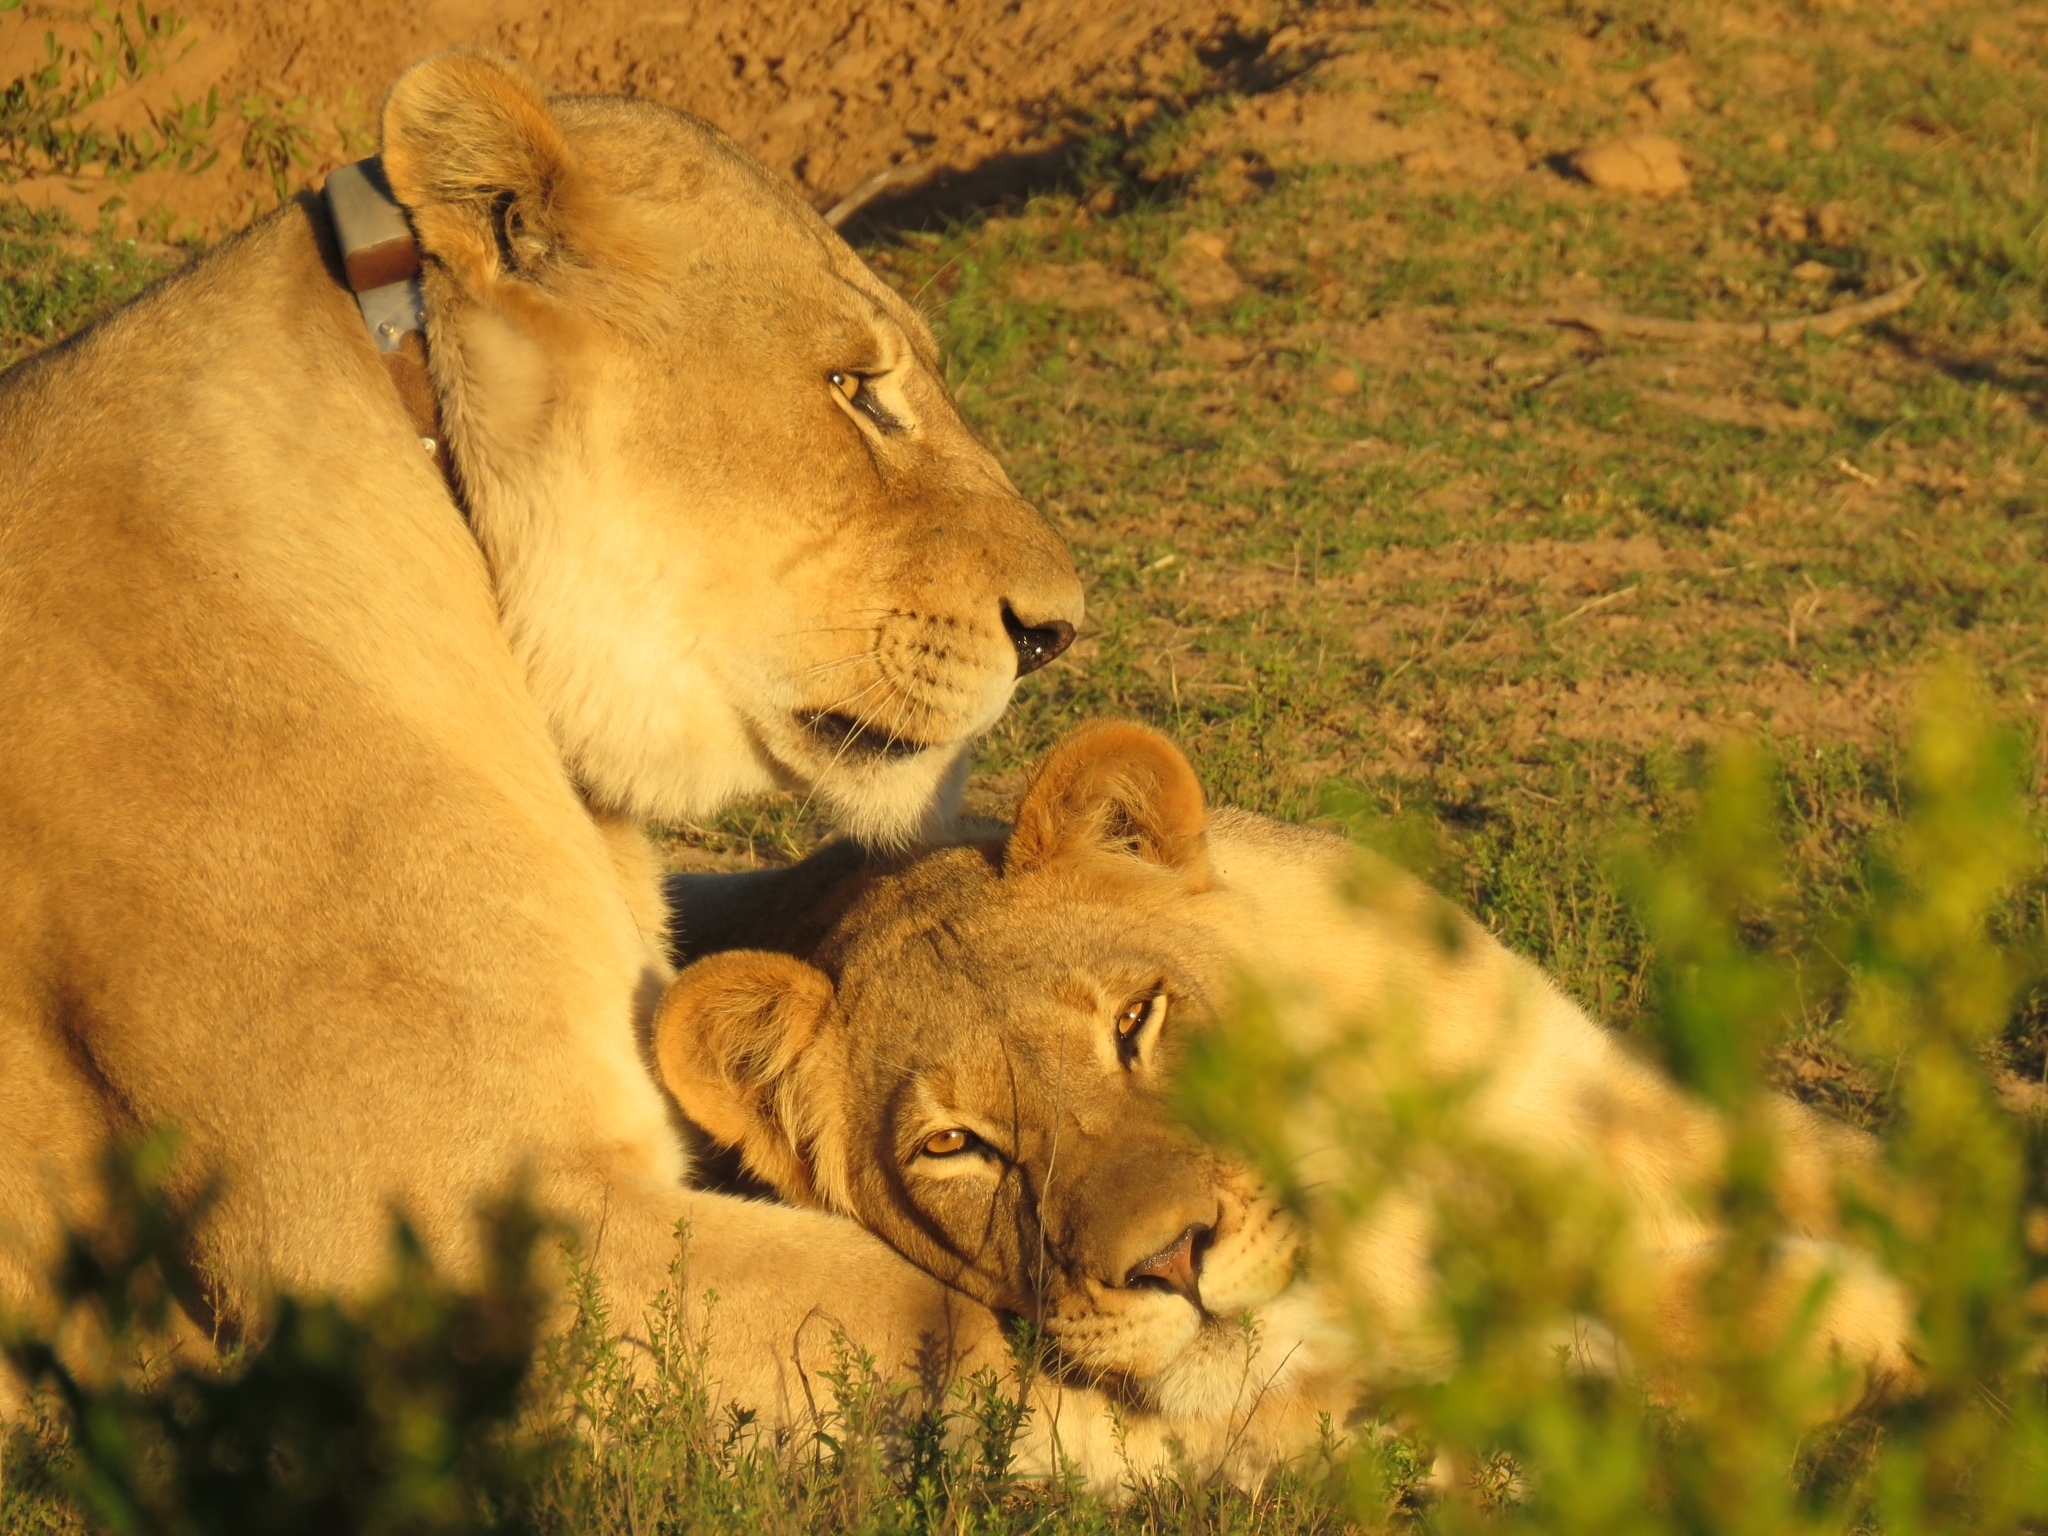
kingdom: Animalia
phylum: Chordata
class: Mammalia
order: Carnivora
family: Felidae
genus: Panthera
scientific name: Panthera leo
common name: Lion
